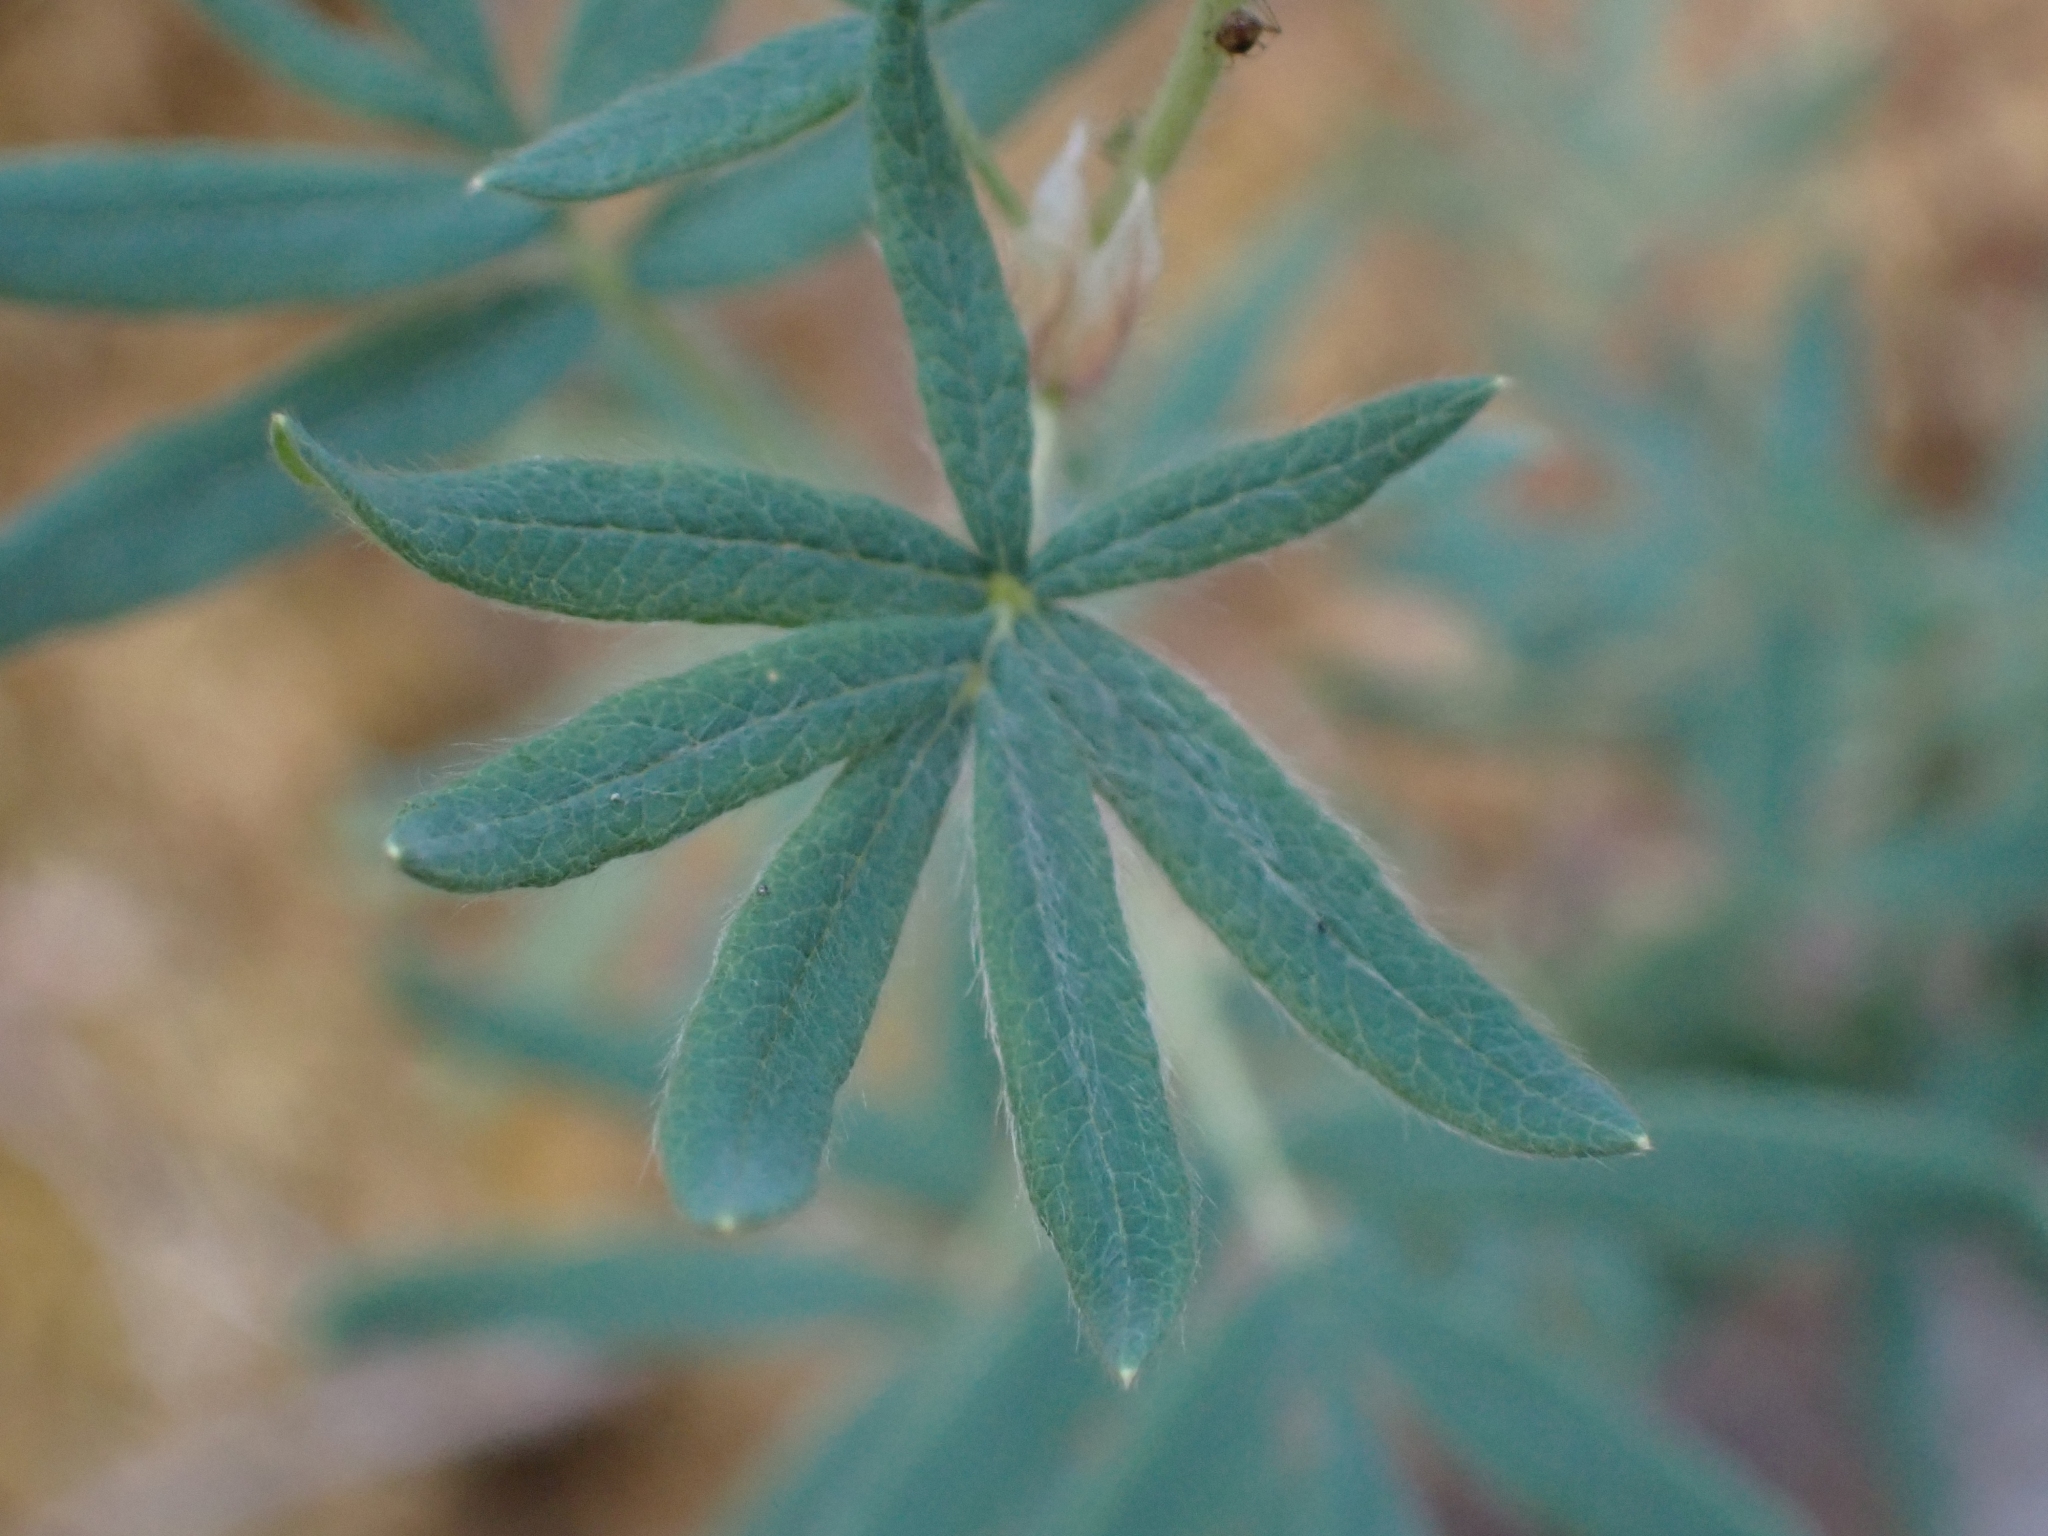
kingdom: Plantae
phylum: Tracheophyta
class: Magnoliopsida
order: Rosales
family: Rosaceae
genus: Dasiphora
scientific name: Dasiphora fruticosa
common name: Shrubby cinquefoil
